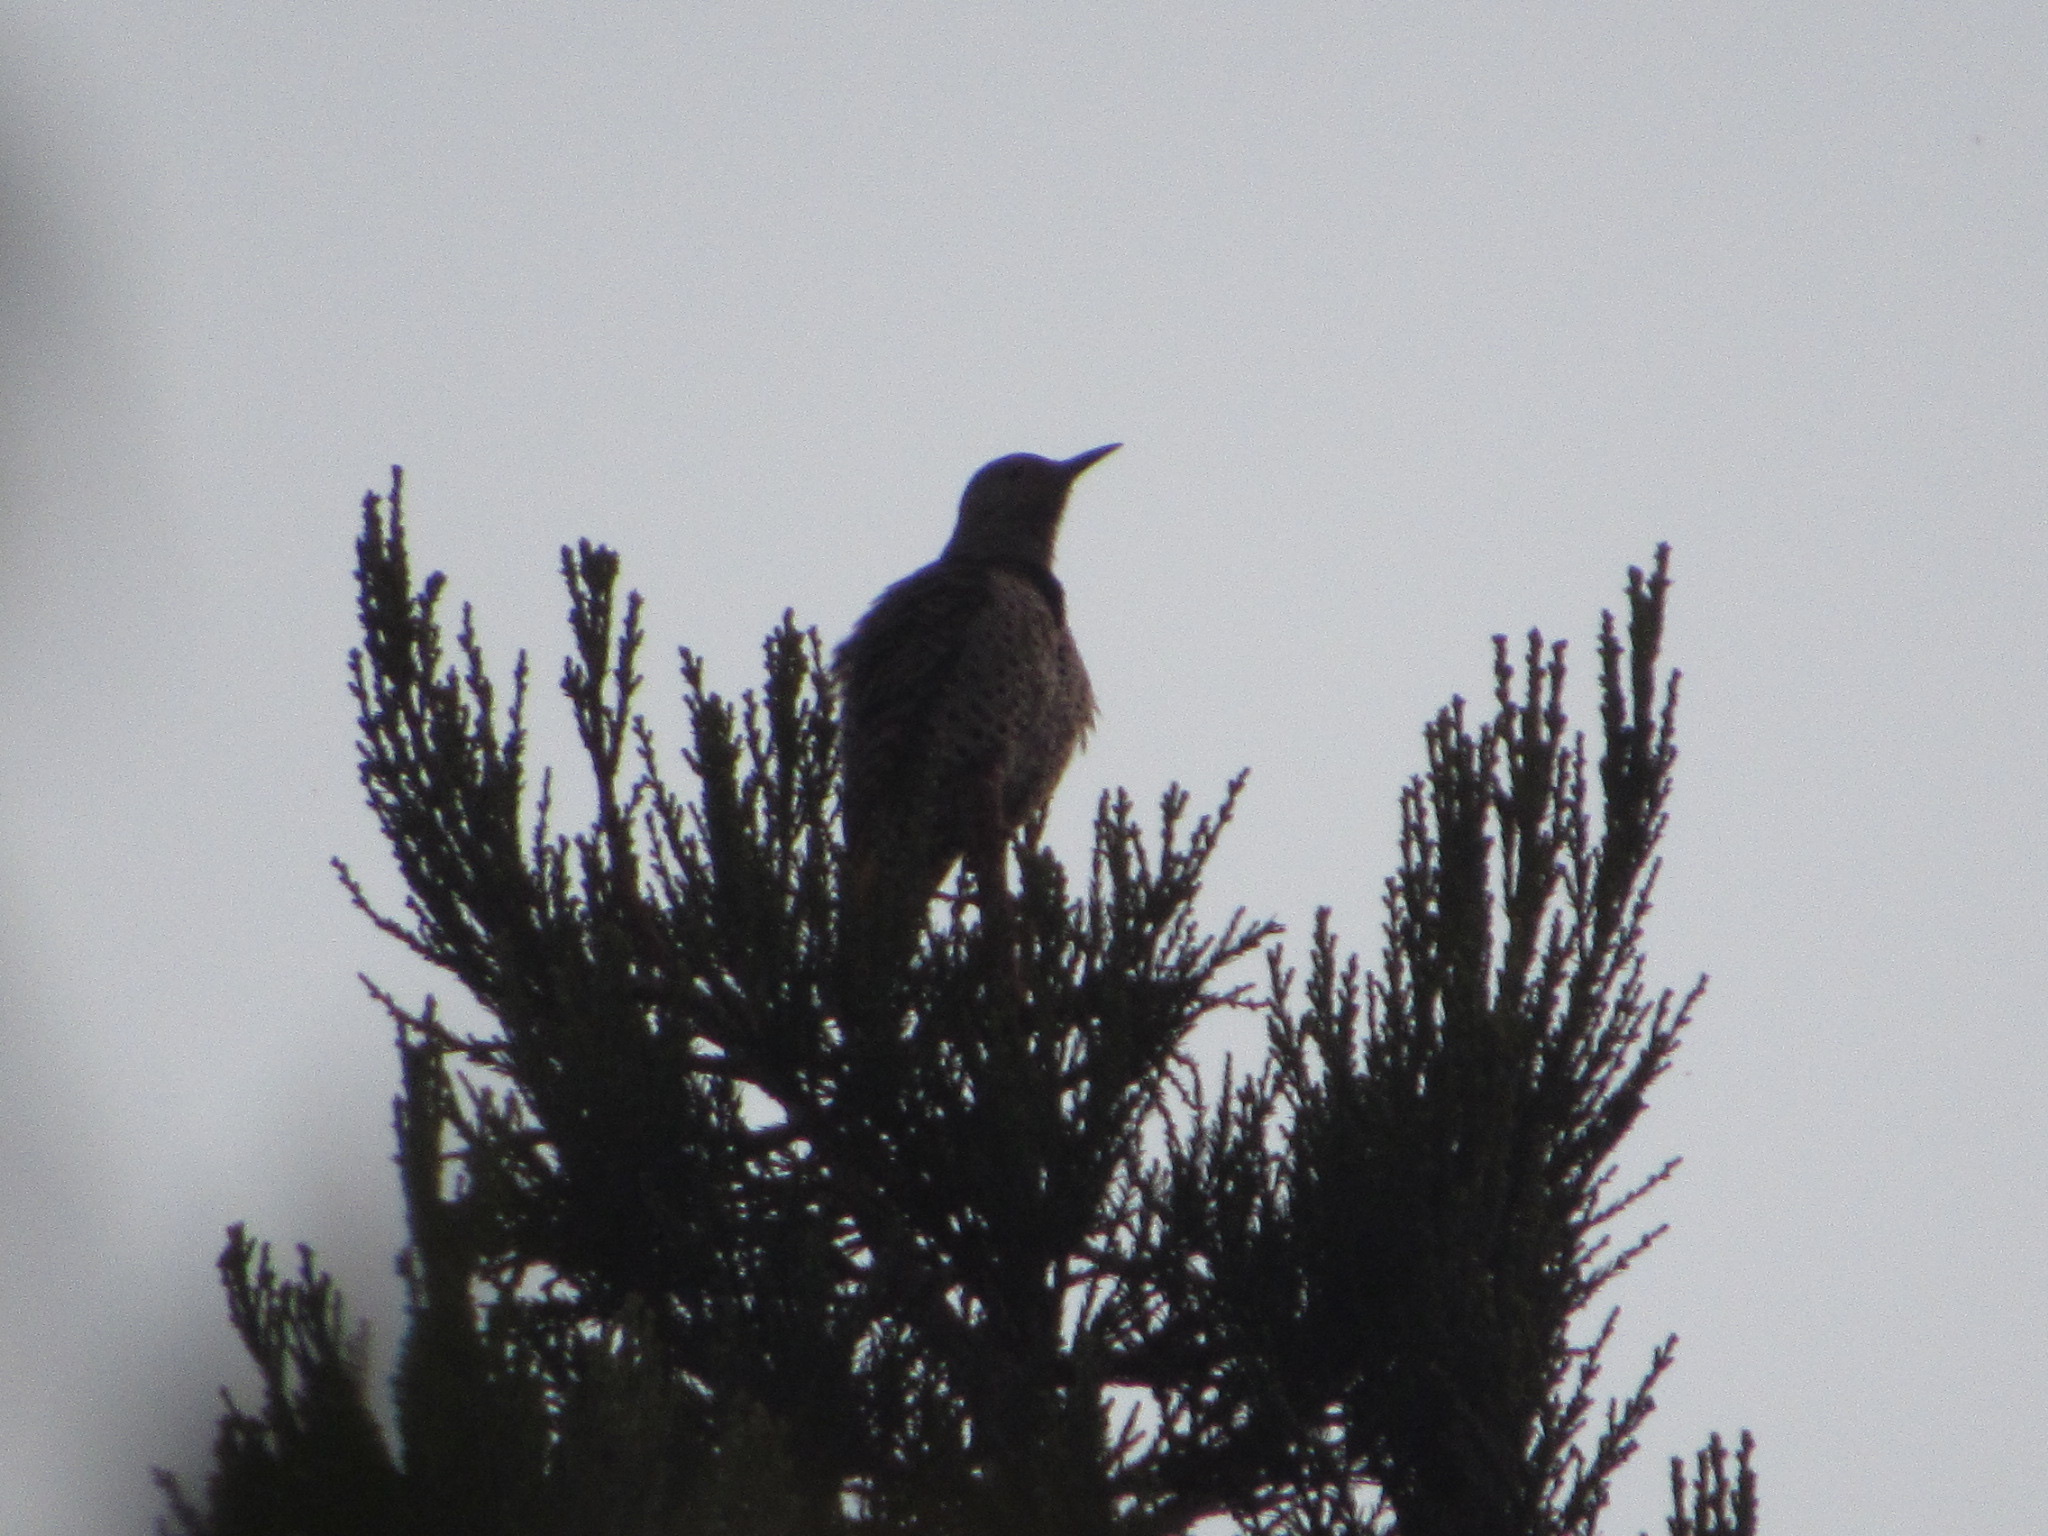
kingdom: Animalia
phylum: Chordata
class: Aves
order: Piciformes
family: Picidae
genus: Colaptes
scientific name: Colaptes auratus
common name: Northern flicker
